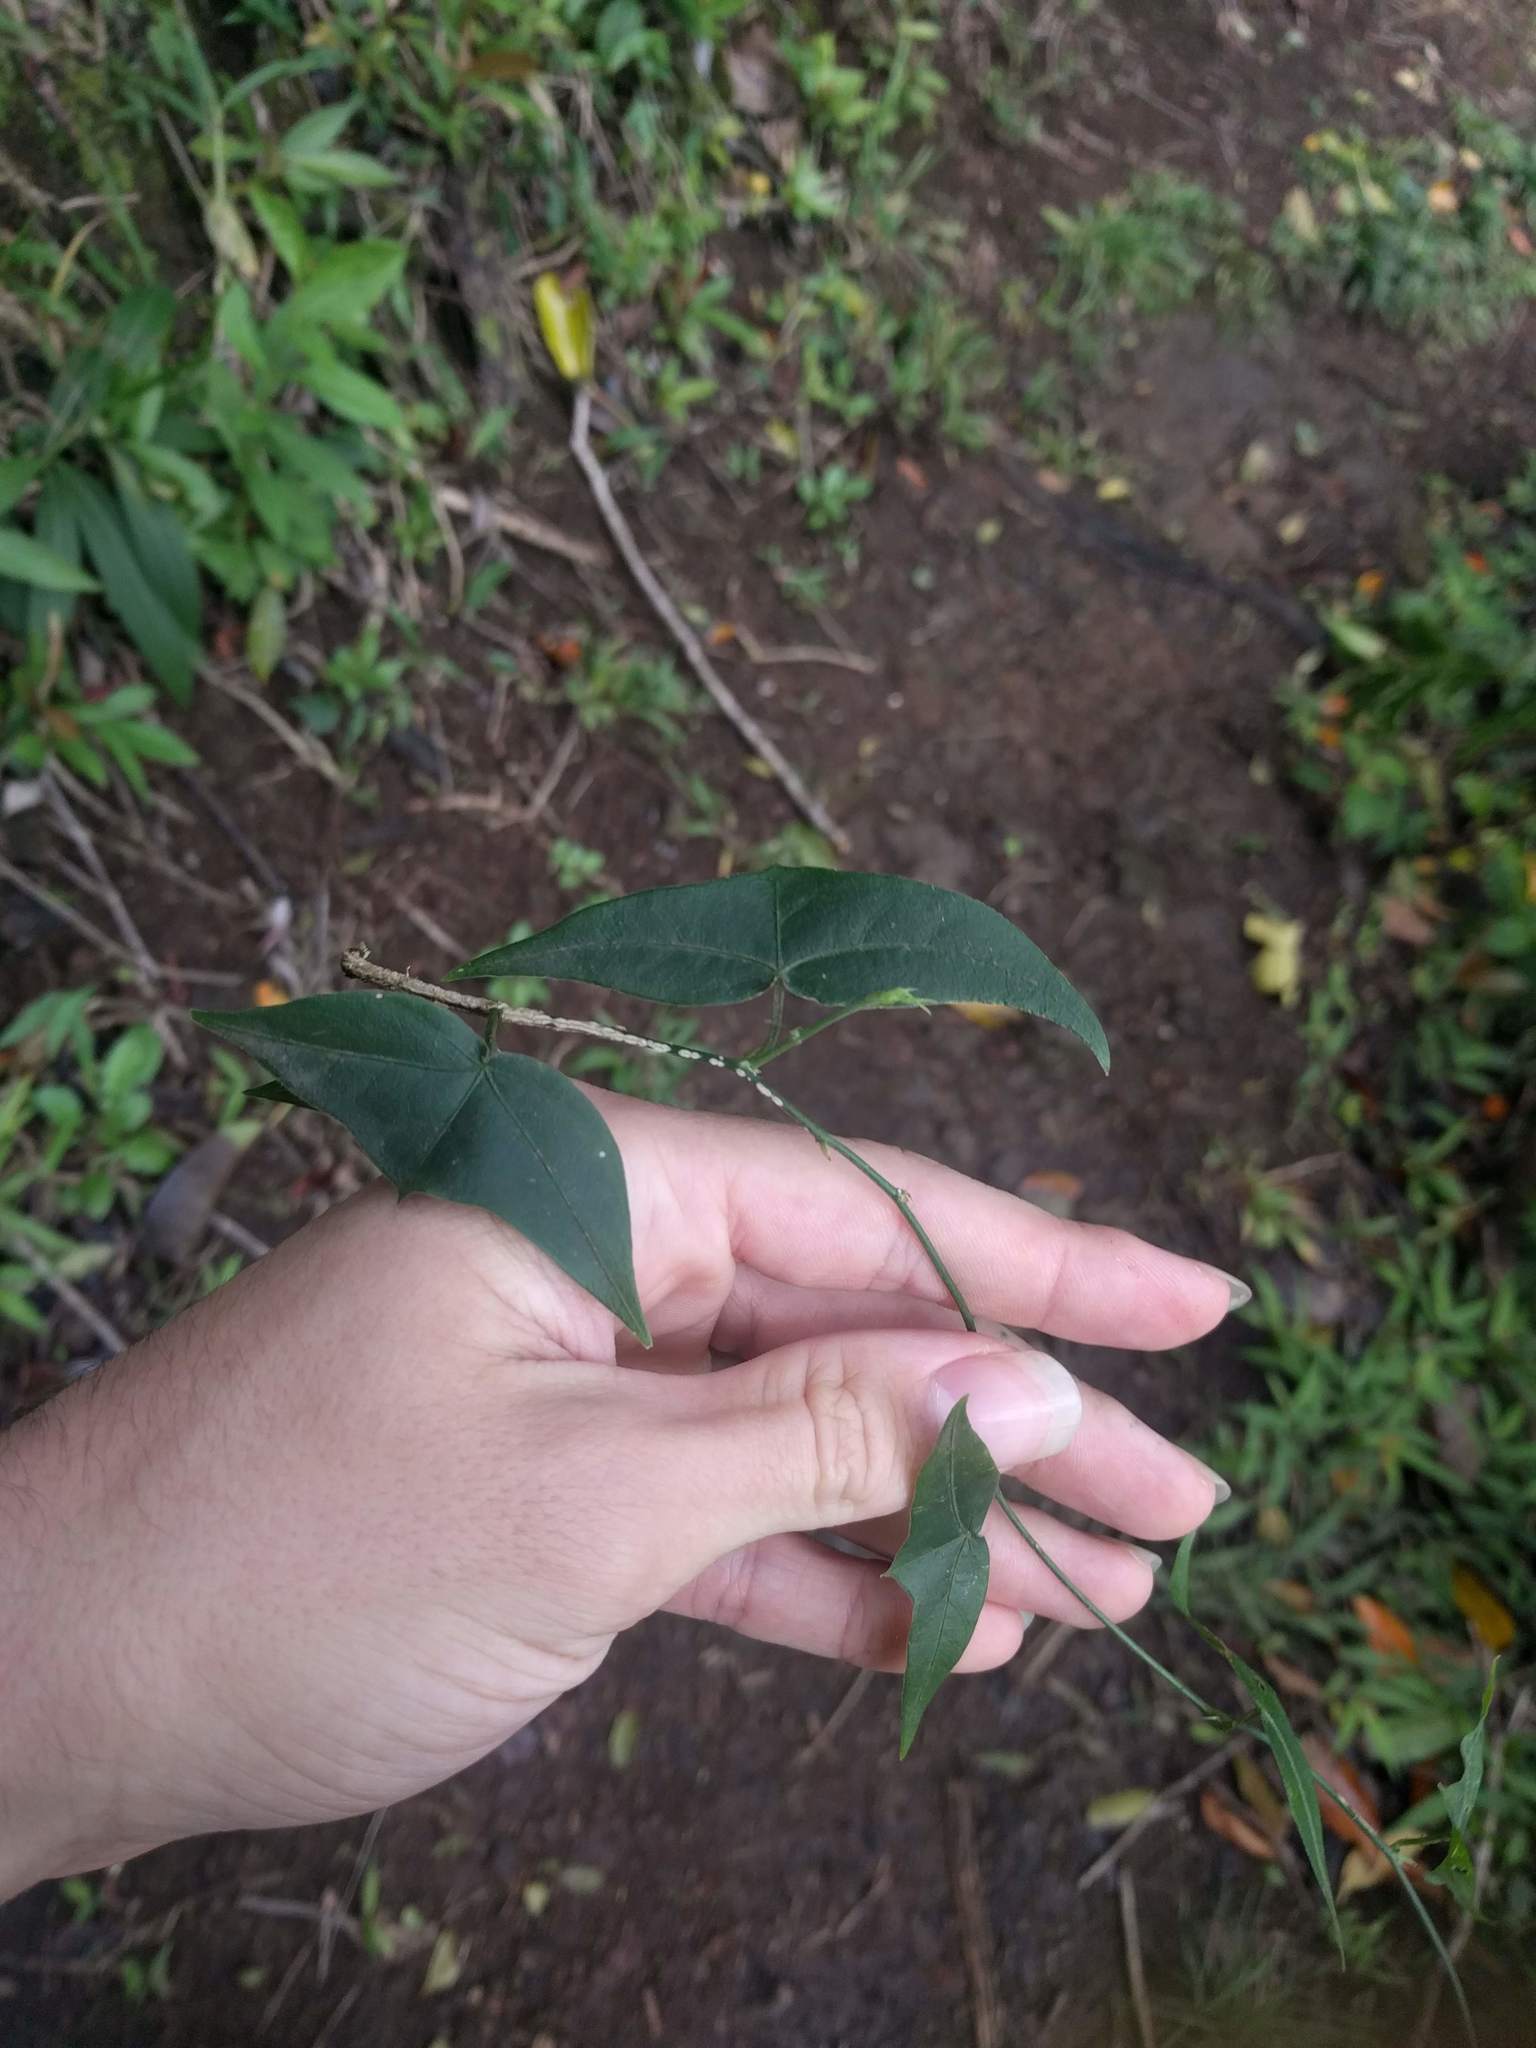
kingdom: Plantae
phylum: Tracheophyta
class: Magnoliopsida
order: Malpighiales
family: Passifloraceae
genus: Passiflora
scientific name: Passiflora suberosa
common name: Wild passionfruit
